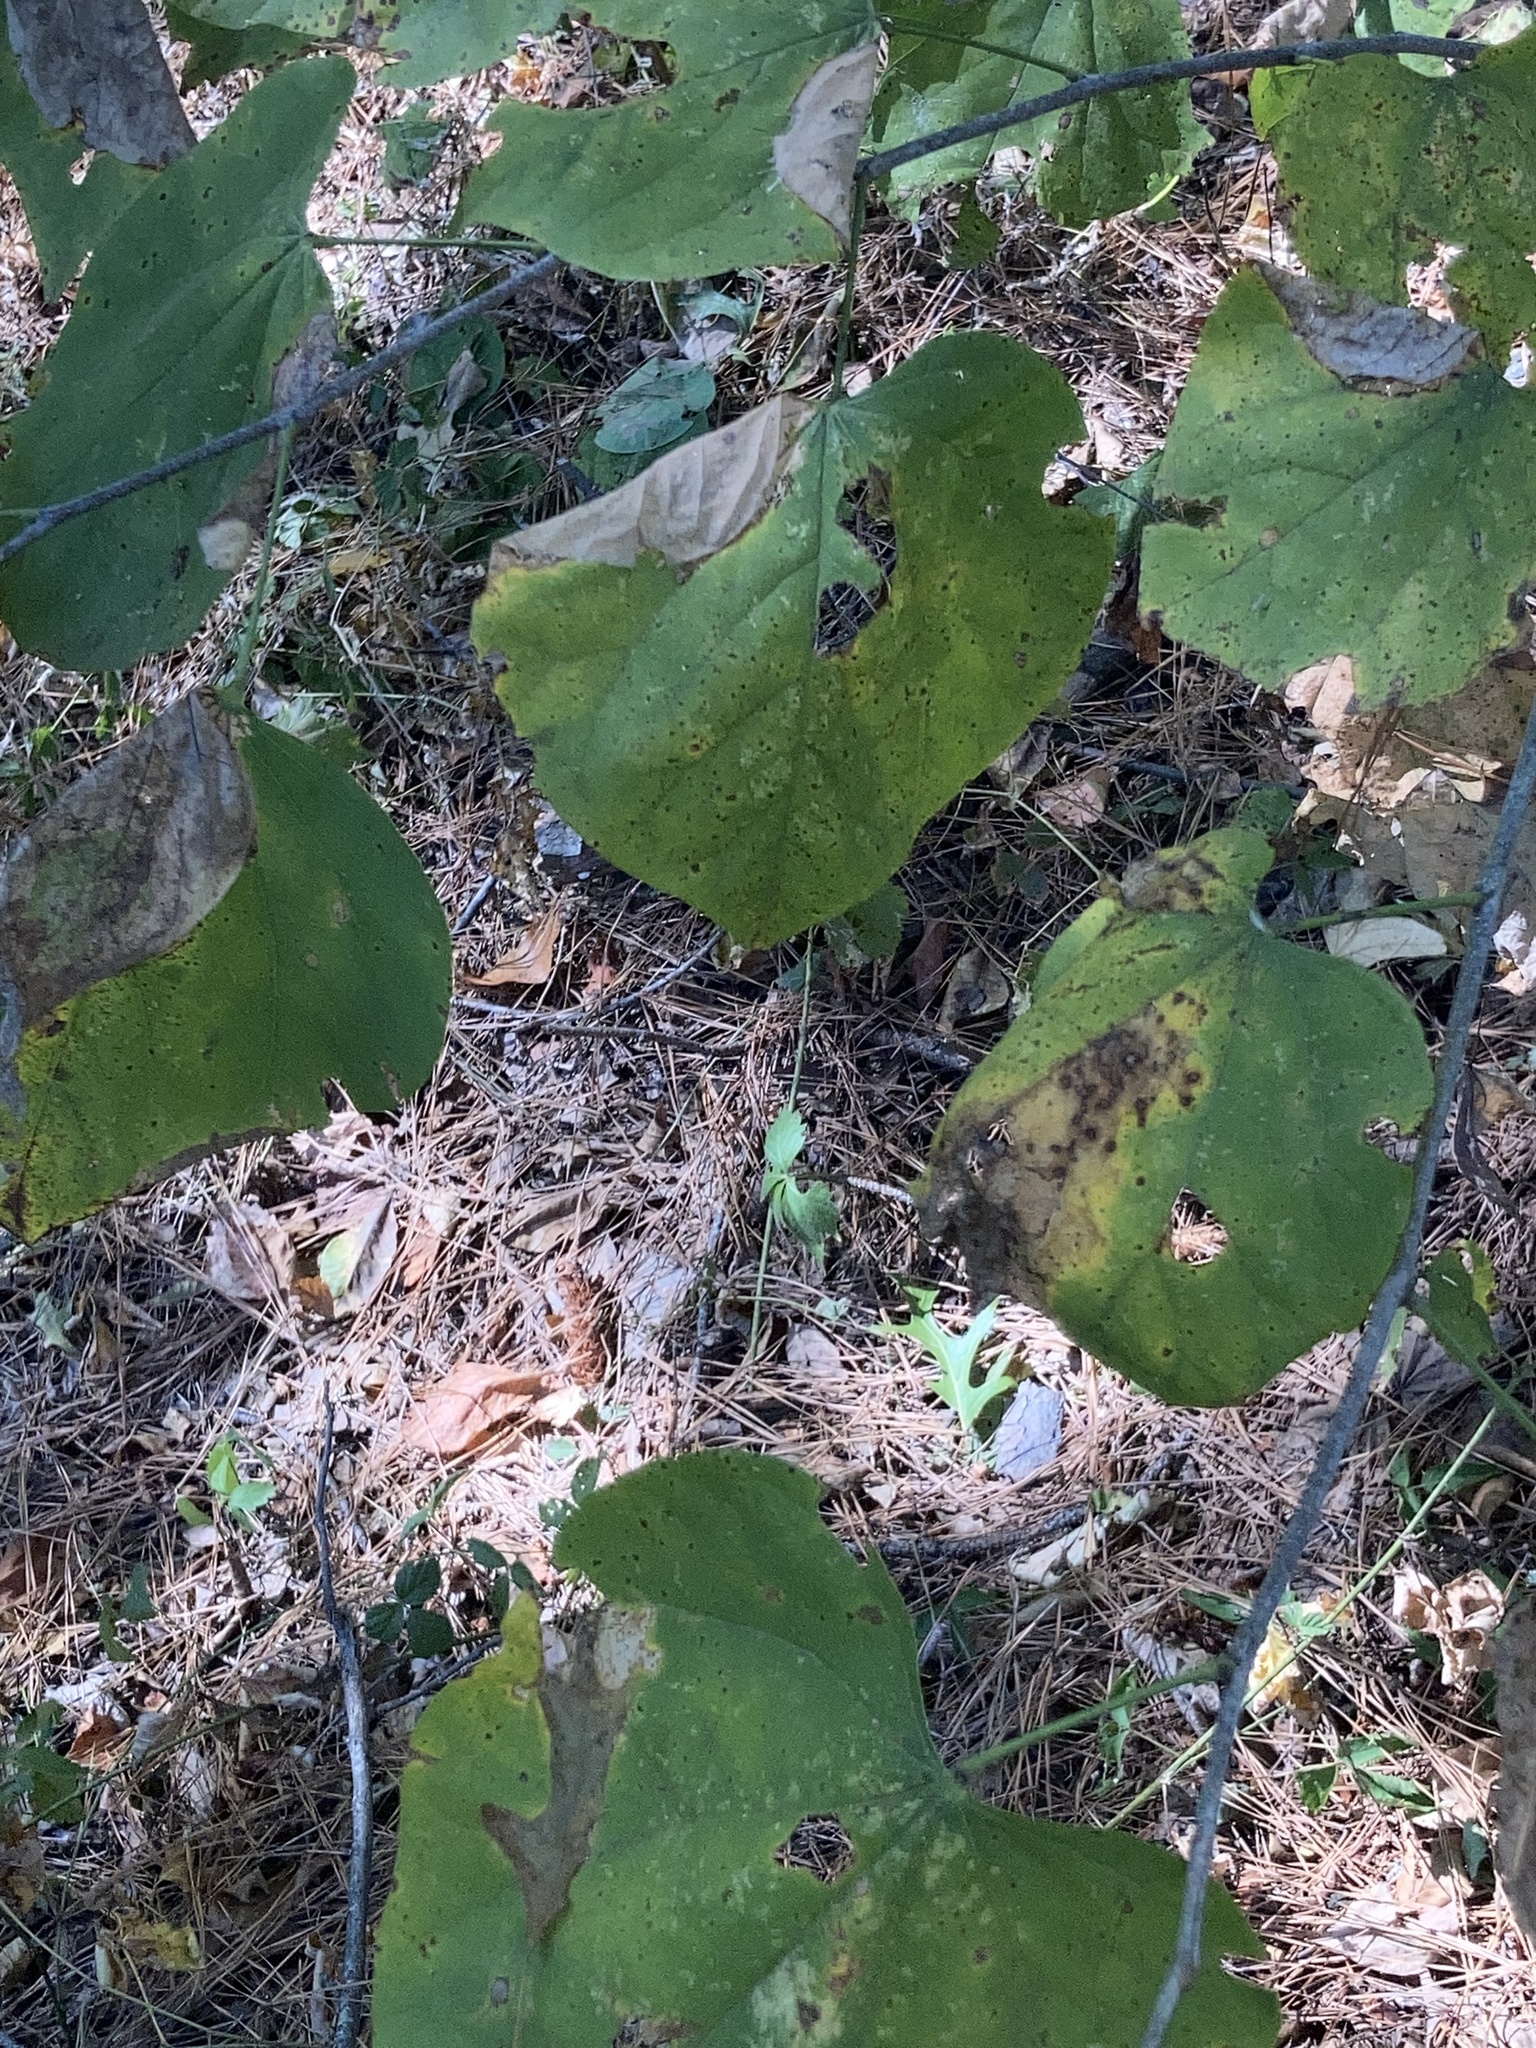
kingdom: Plantae
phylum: Tracheophyta
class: Magnoliopsida
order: Fabales
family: Fabaceae
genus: Cercis
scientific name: Cercis canadensis
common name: Eastern redbud
